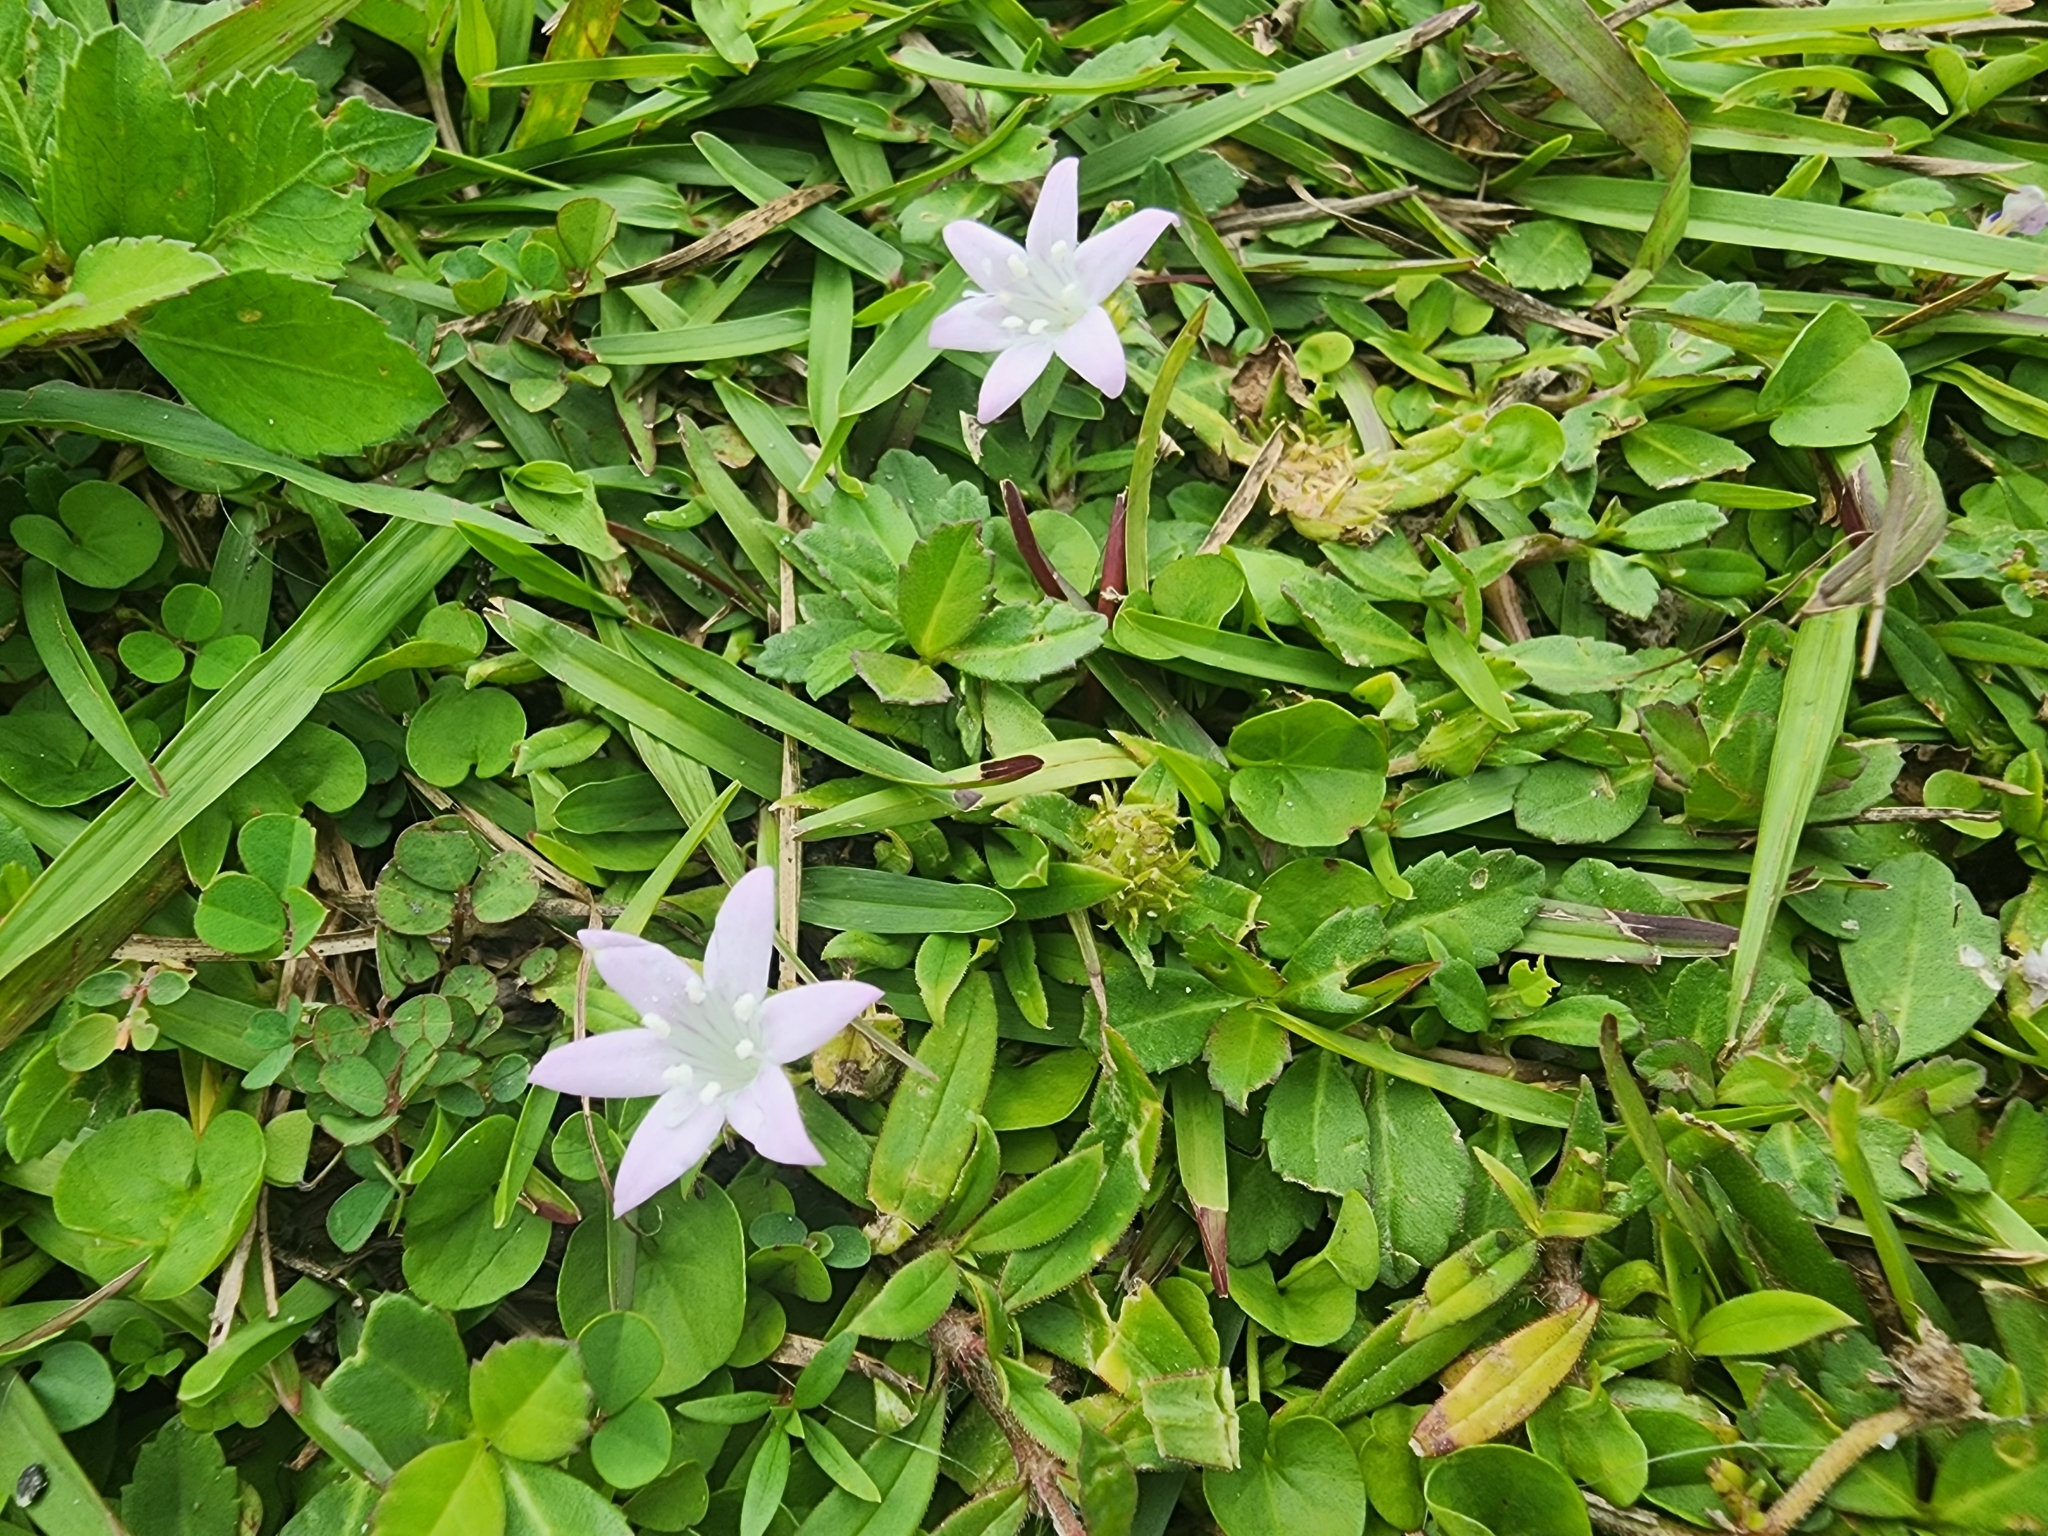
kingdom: Plantae
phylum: Tracheophyta
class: Magnoliopsida
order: Gentianales
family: Rubiaceae
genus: Richardia
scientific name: Richardia grandiflora
